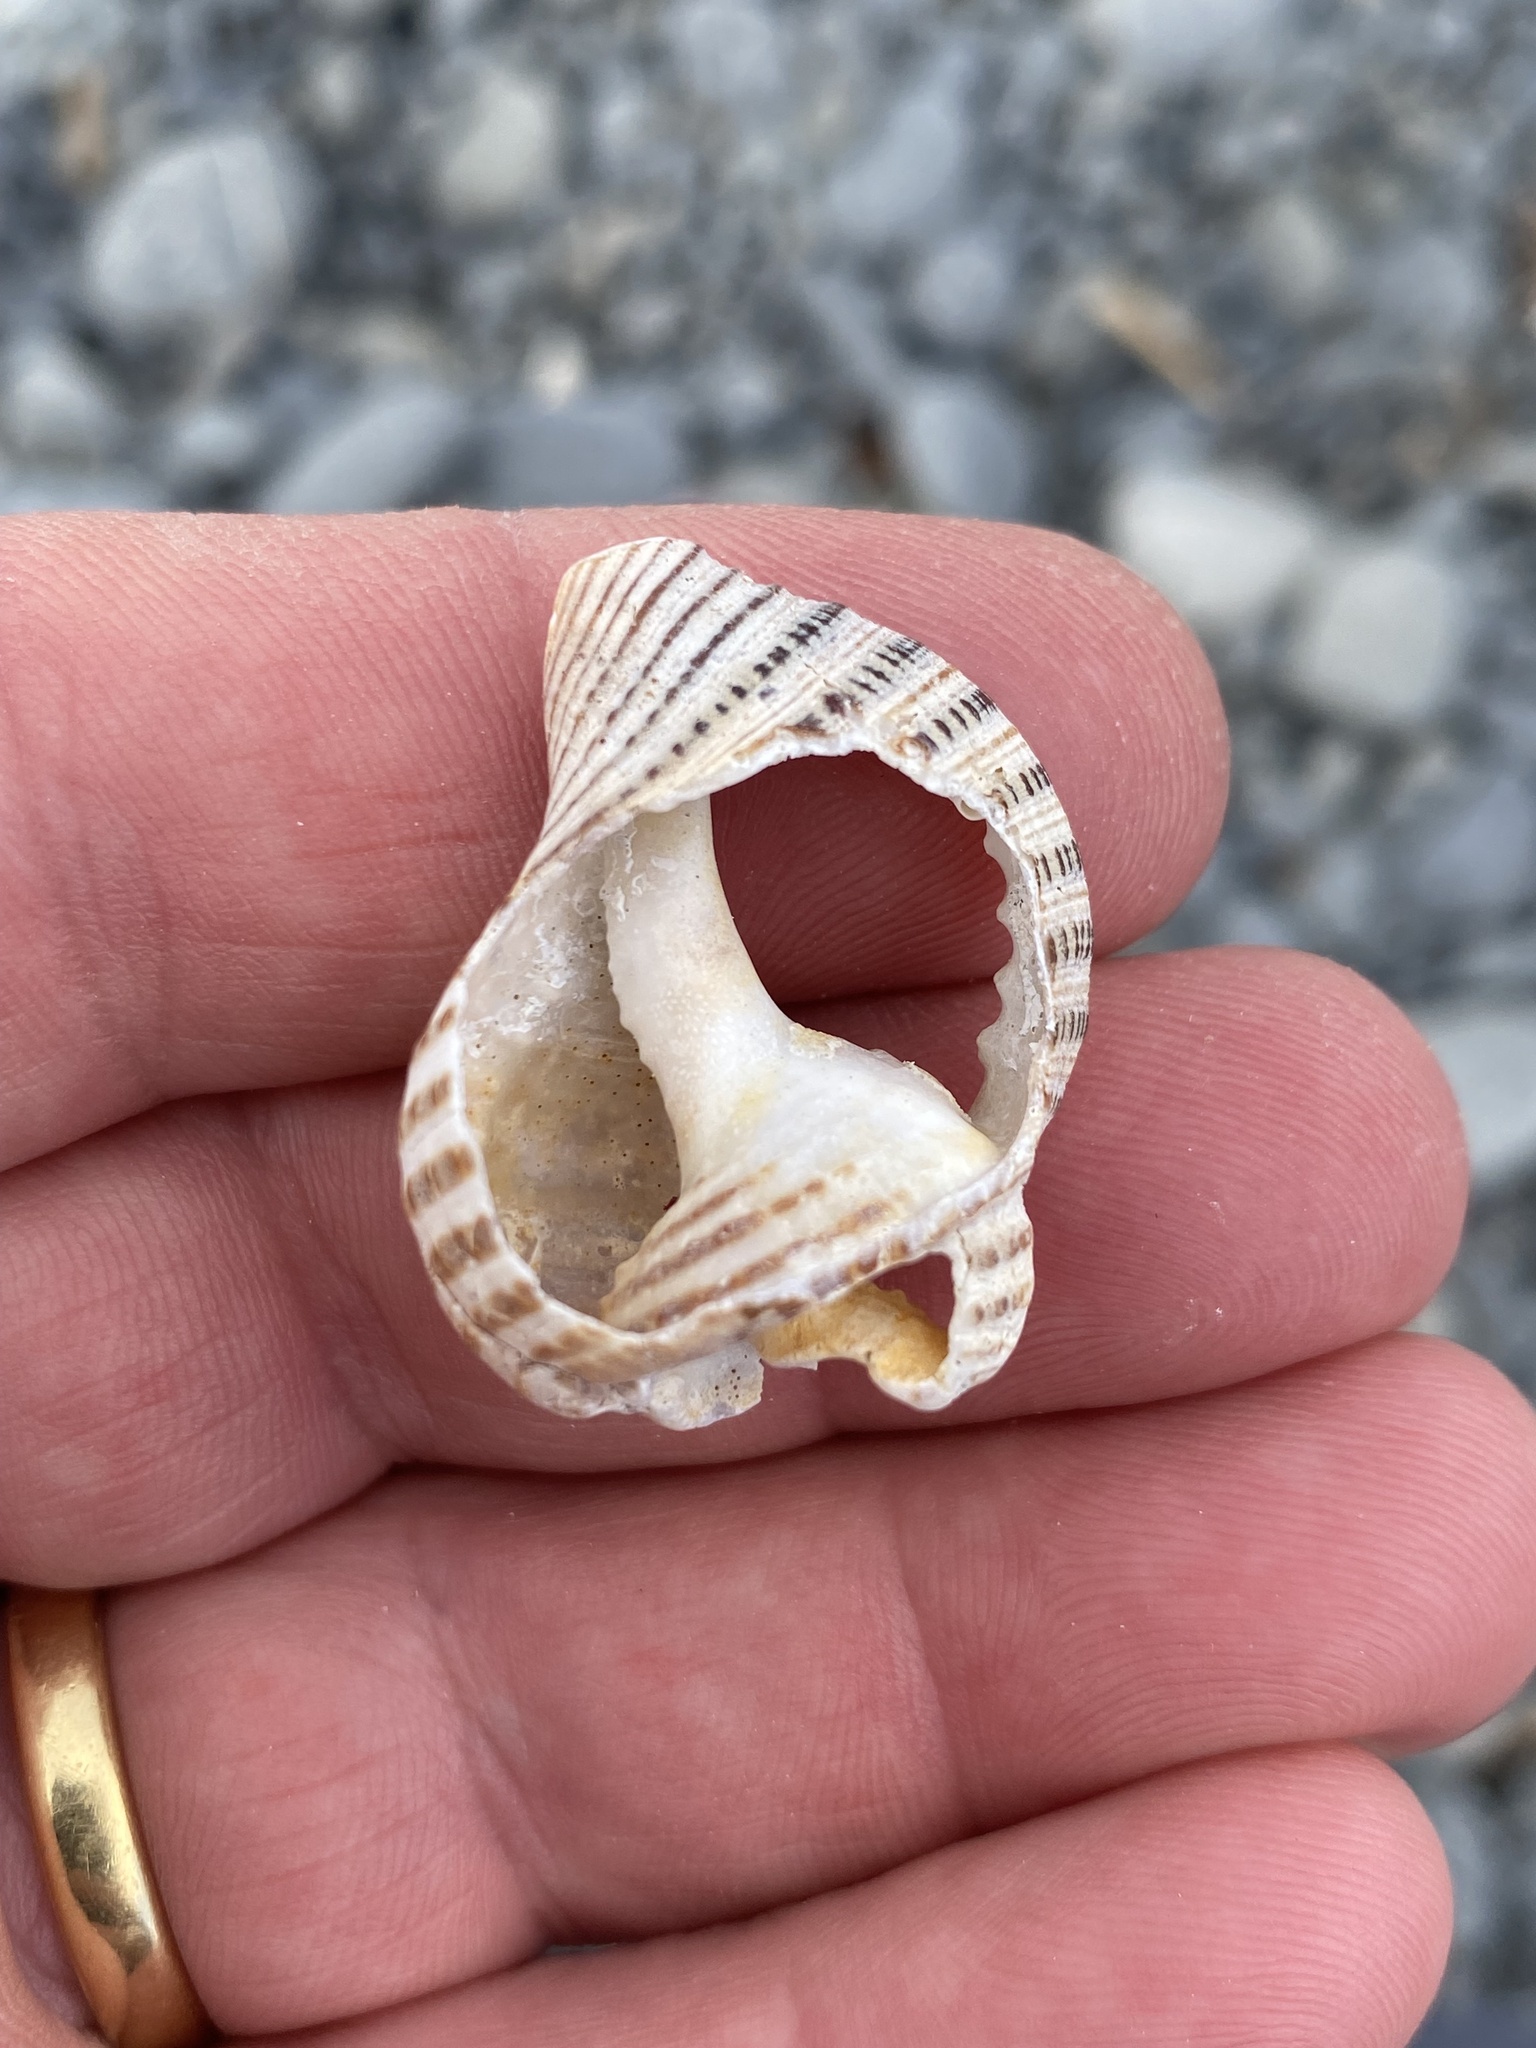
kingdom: Animalia
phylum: Mollusca
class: Gastropoda
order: Littorinimorpha
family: Cymatiidae
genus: Argobuccinum
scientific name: Argobuccinum pustulosum
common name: Pustular triton
